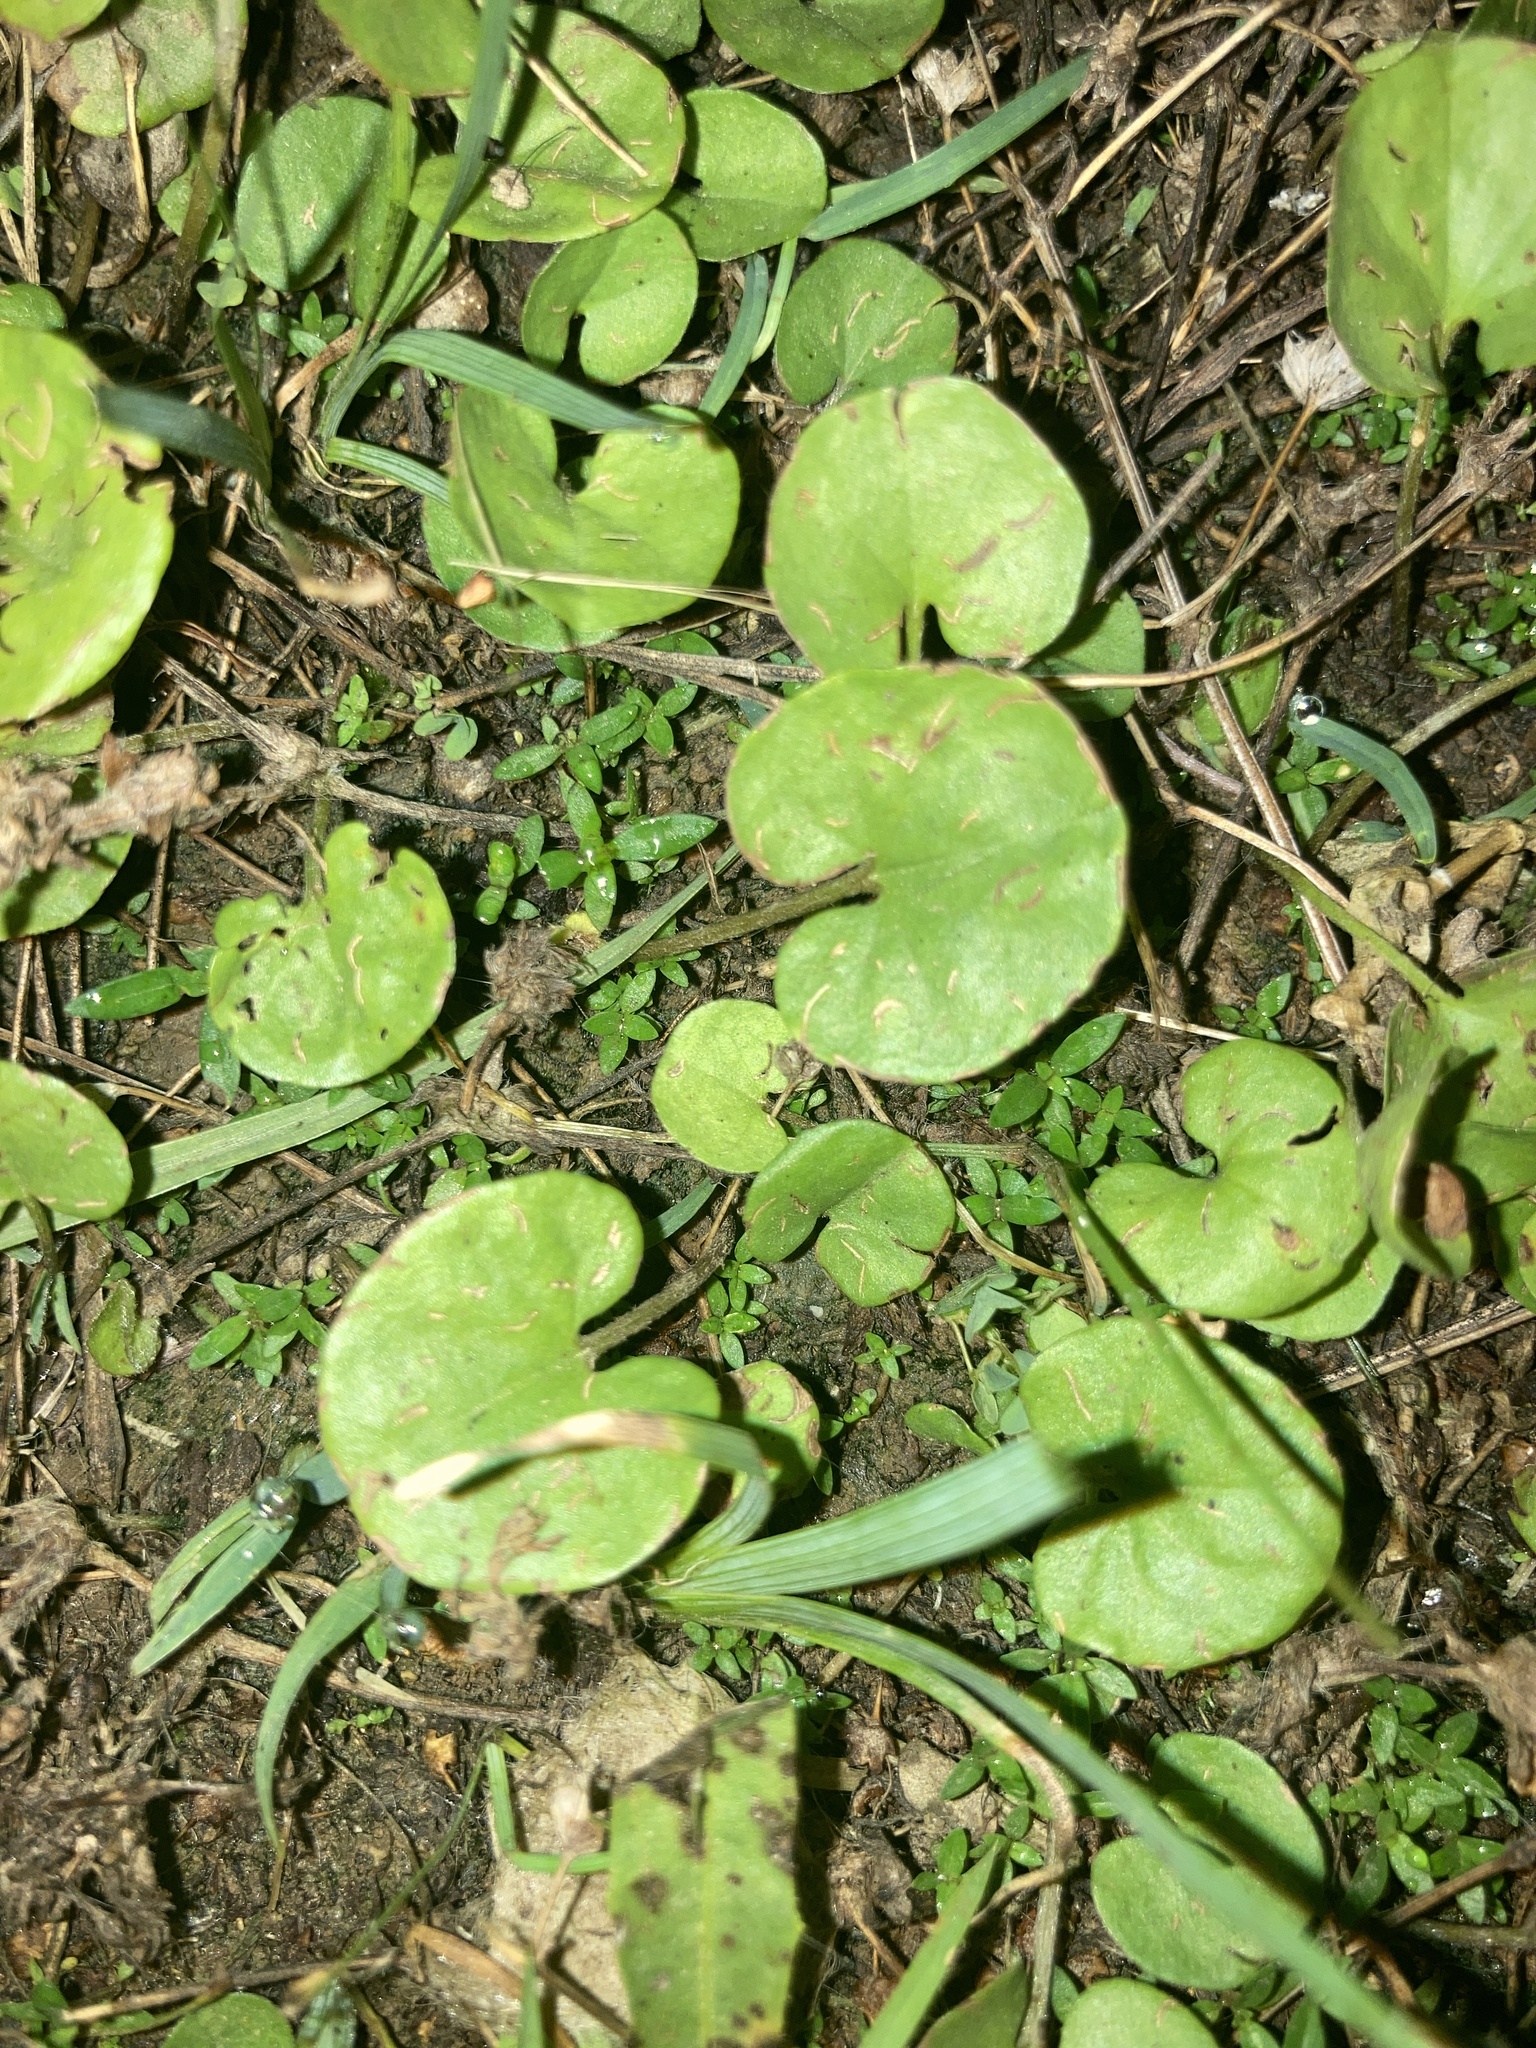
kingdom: Plantae
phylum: Tracheophyta
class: Magnoliopsida
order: Solanales
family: Convolvulaceae
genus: Dichondra
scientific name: Dichondra carolinensis
